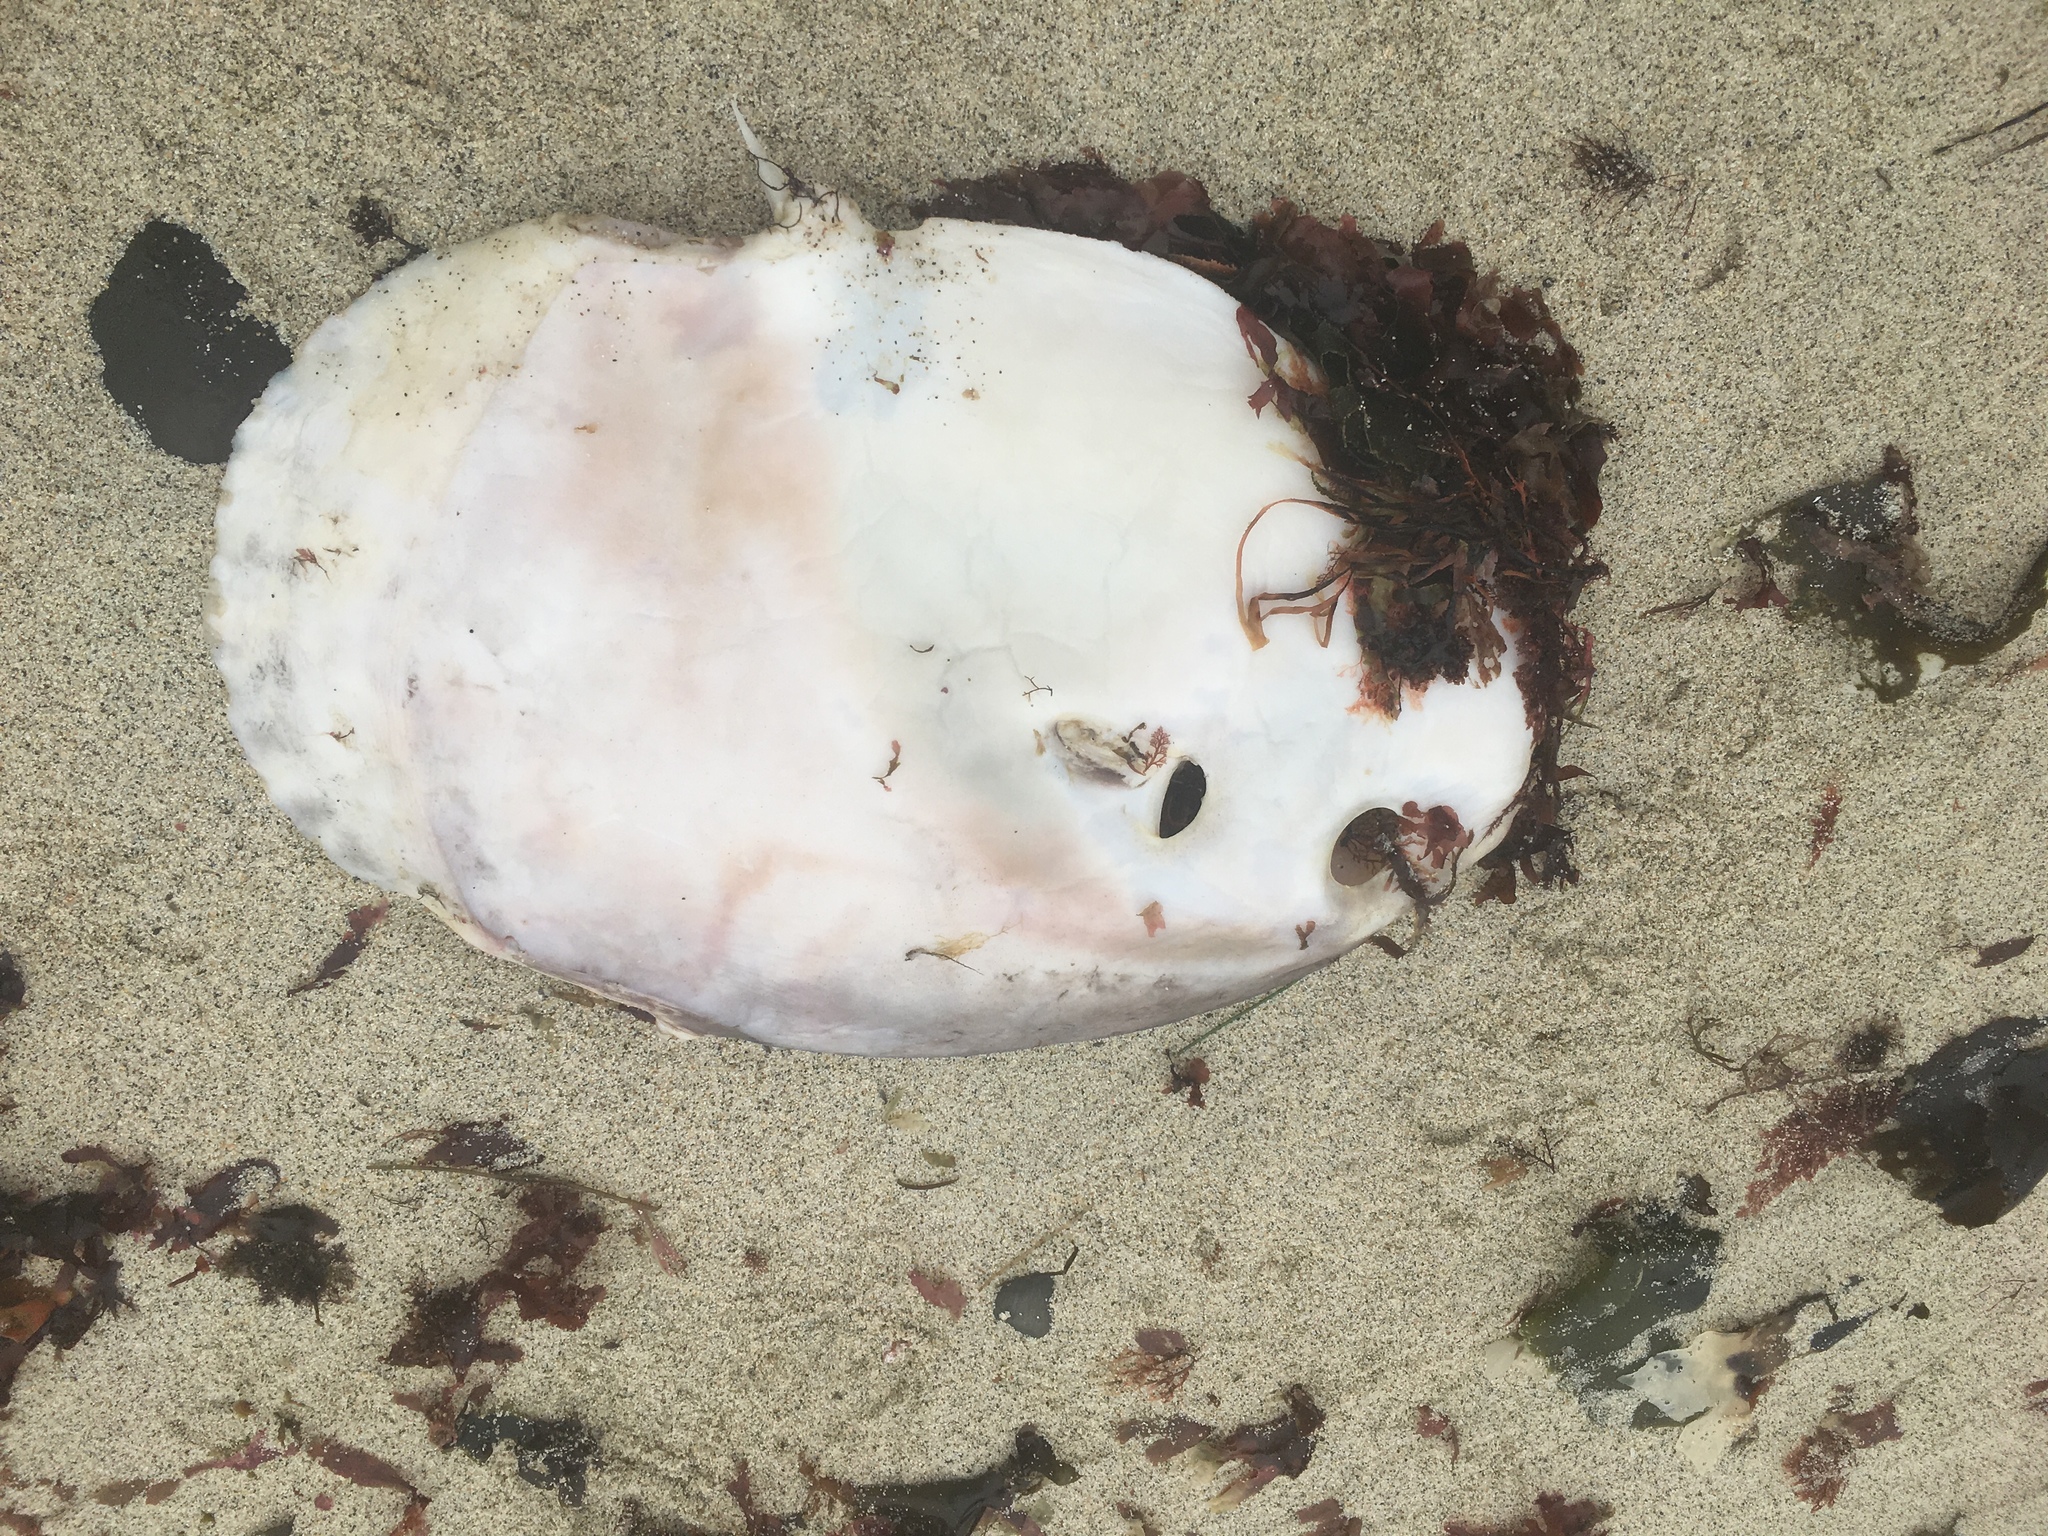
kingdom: Animalia
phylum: Chordata
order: Tetraodontiformes
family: Molidae
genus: Mola
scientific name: Mola mola
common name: Ocean sunfish
